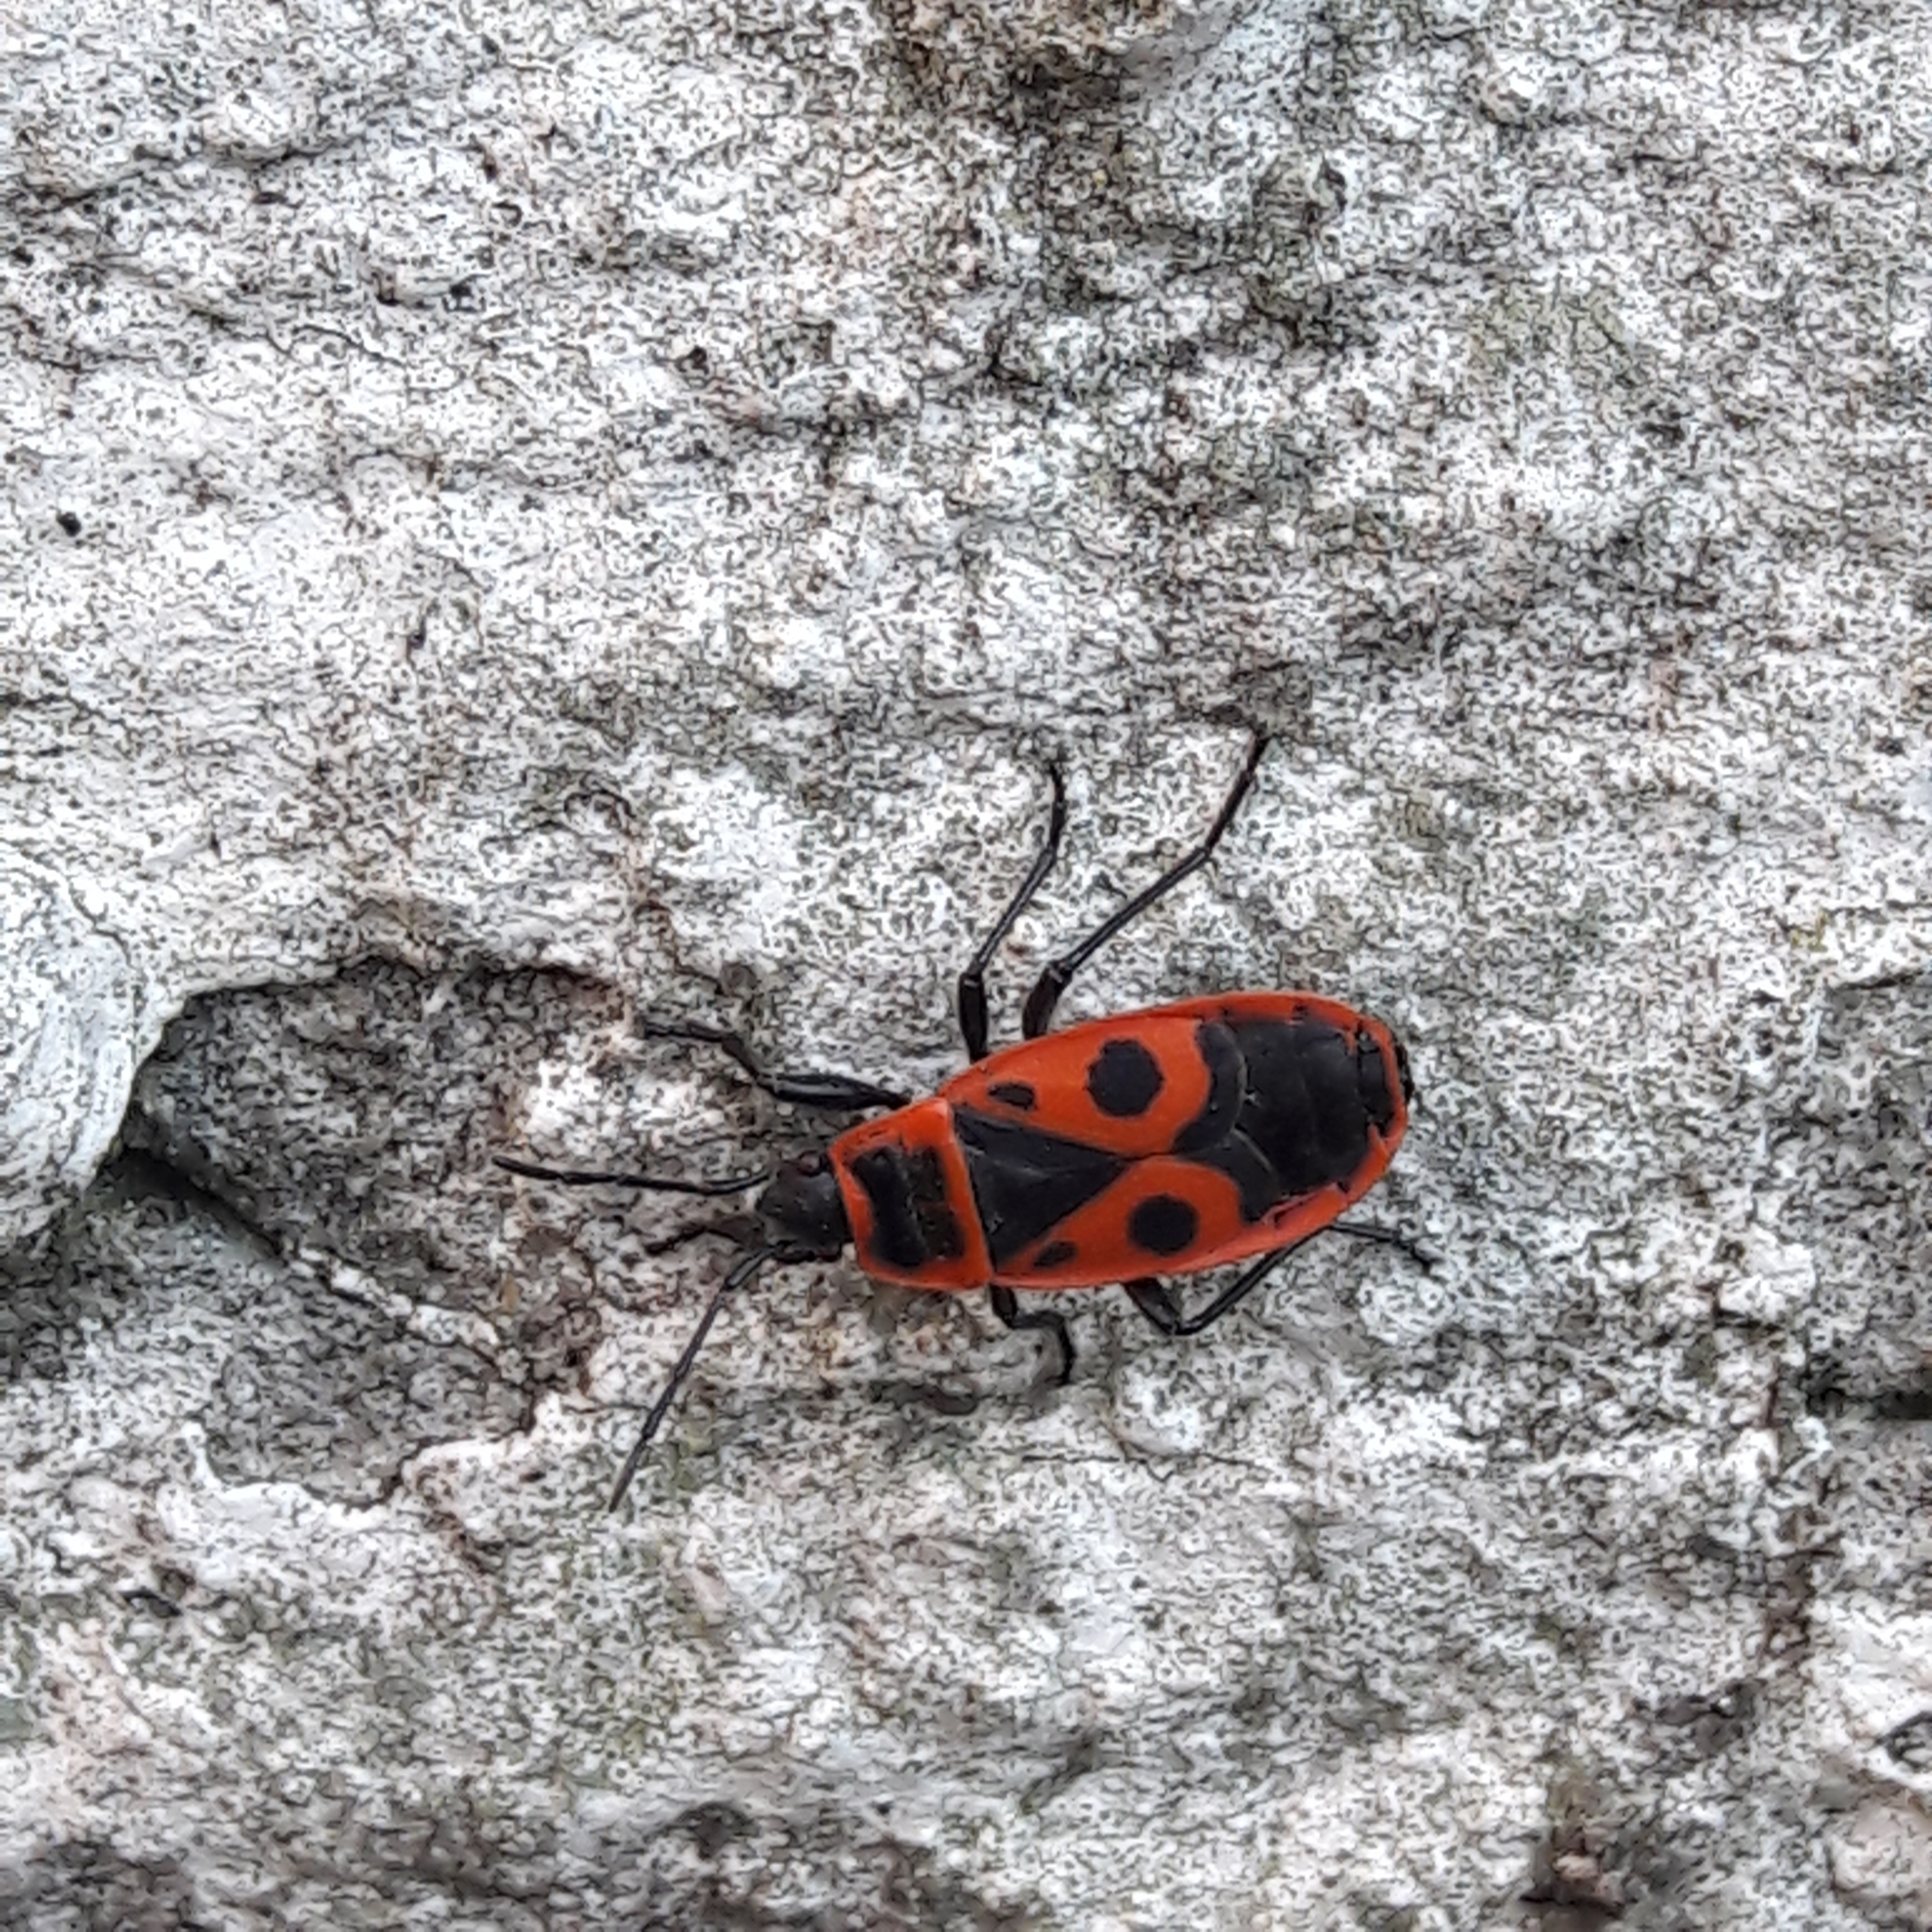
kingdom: Animalia
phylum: Arthropoda
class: Insecta
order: Hemiptera
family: Pyrrhocoridae
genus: Pyrrhocoris
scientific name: Pyrrhocoris apterus
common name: Firebug
